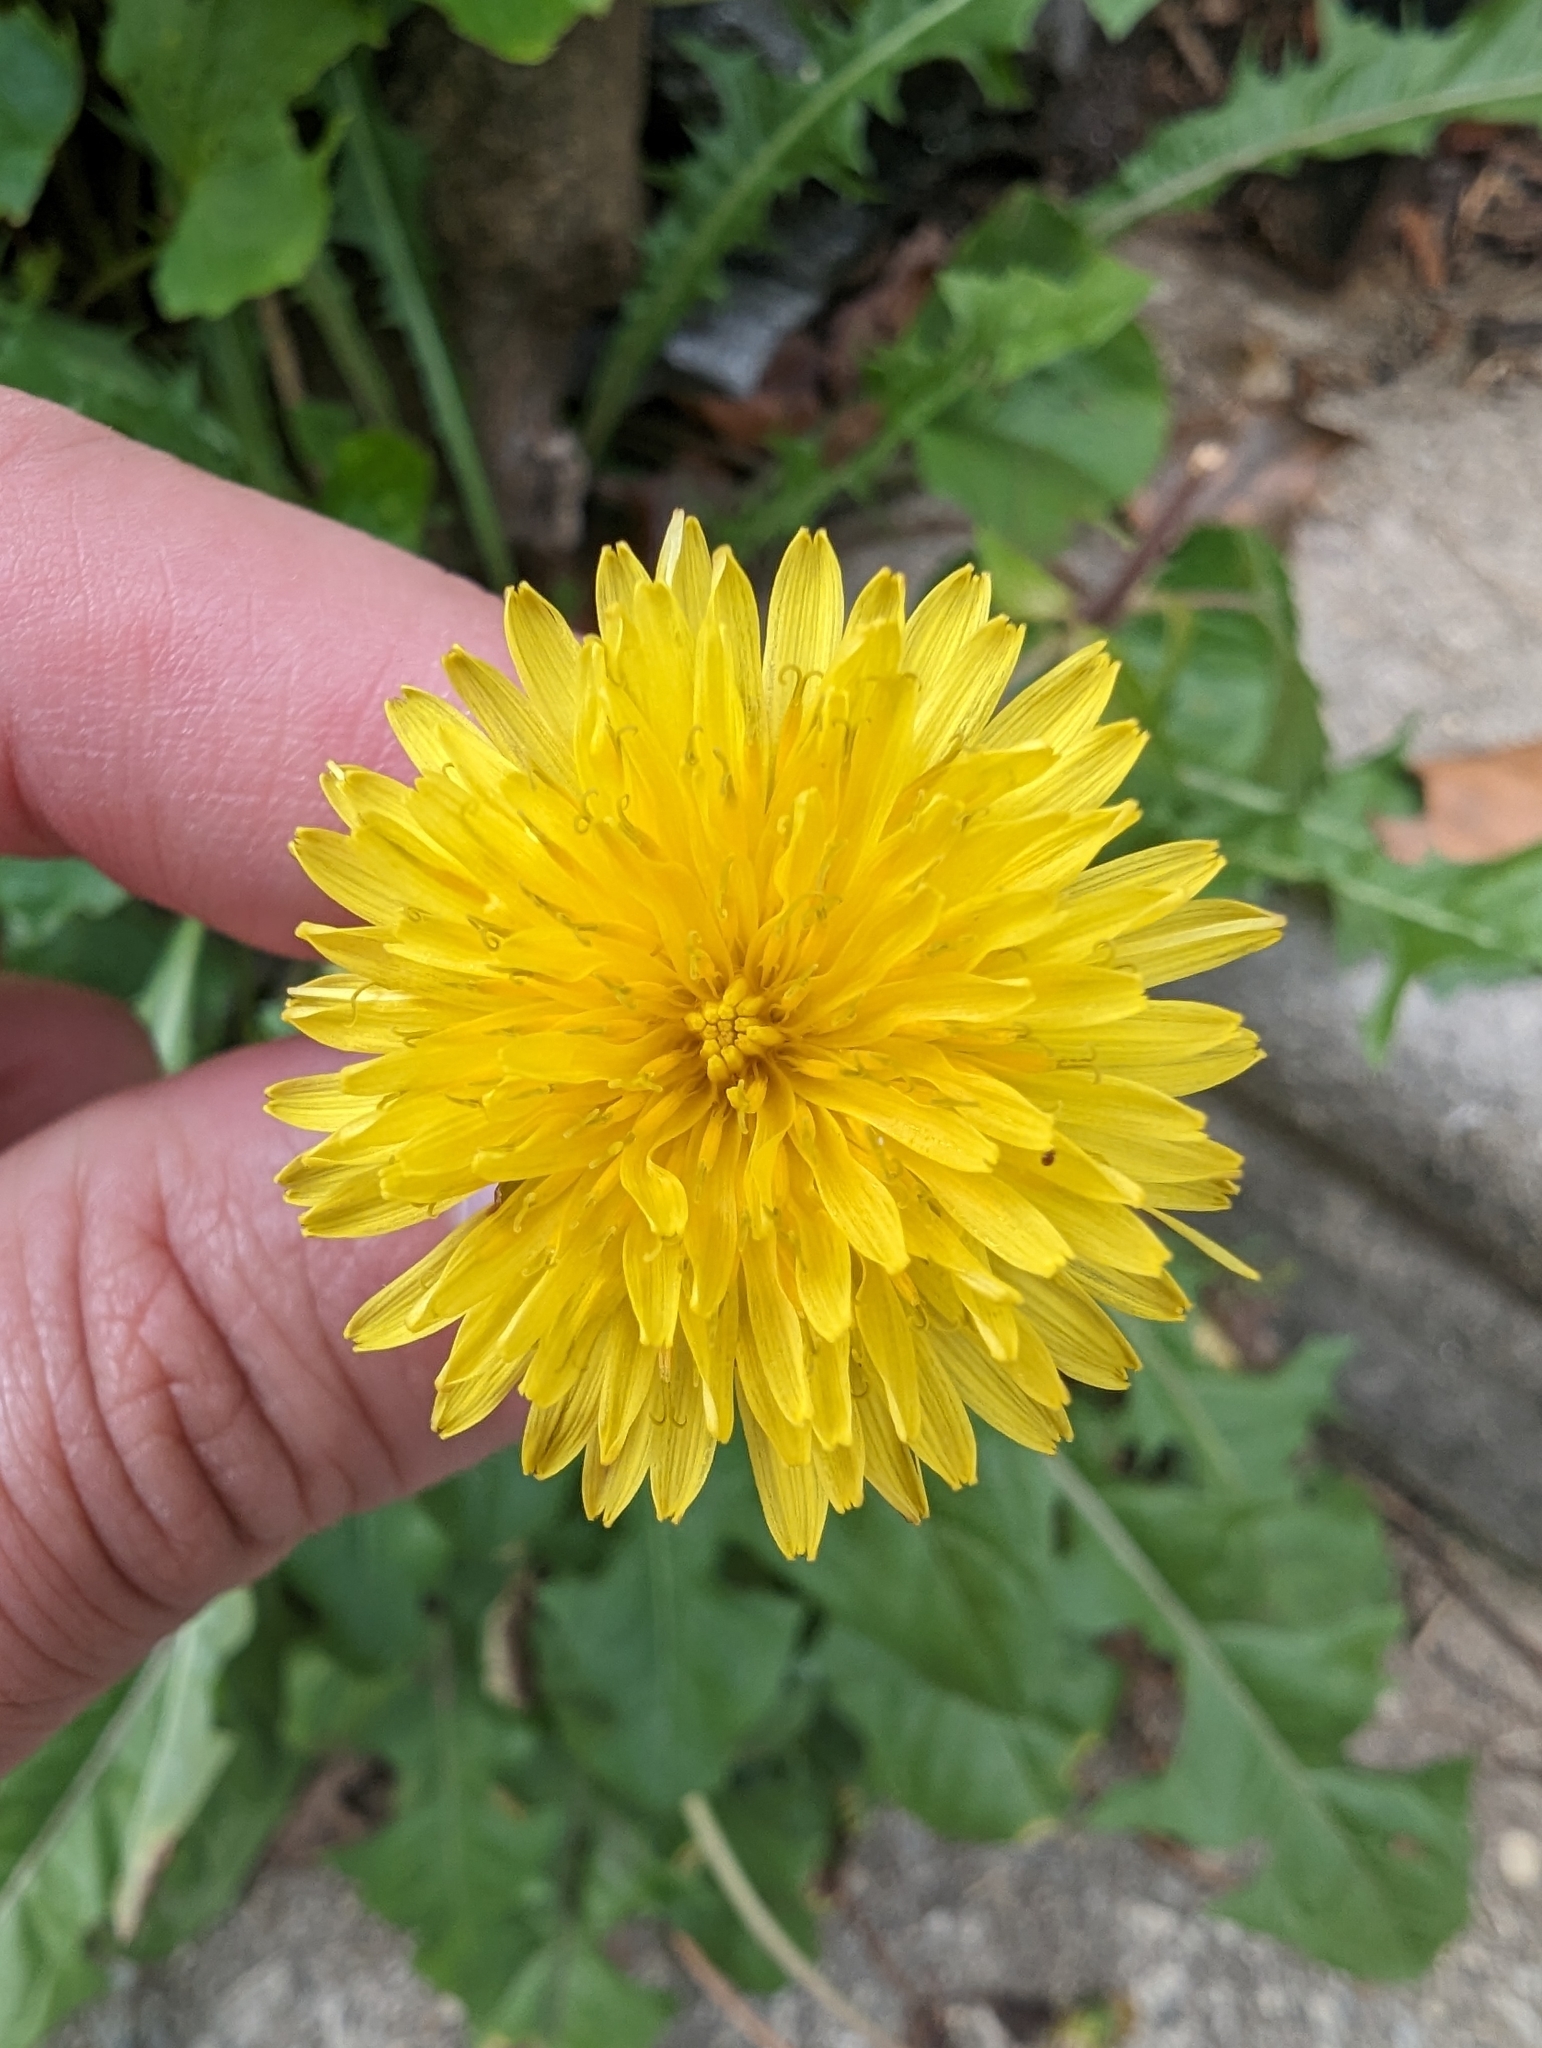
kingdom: Plantae
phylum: Tracheophyta
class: Magnoliopsida
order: Asterales
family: Asteraceae
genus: Taraxacum
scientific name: Taraxacum officinale
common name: Common dandelion
